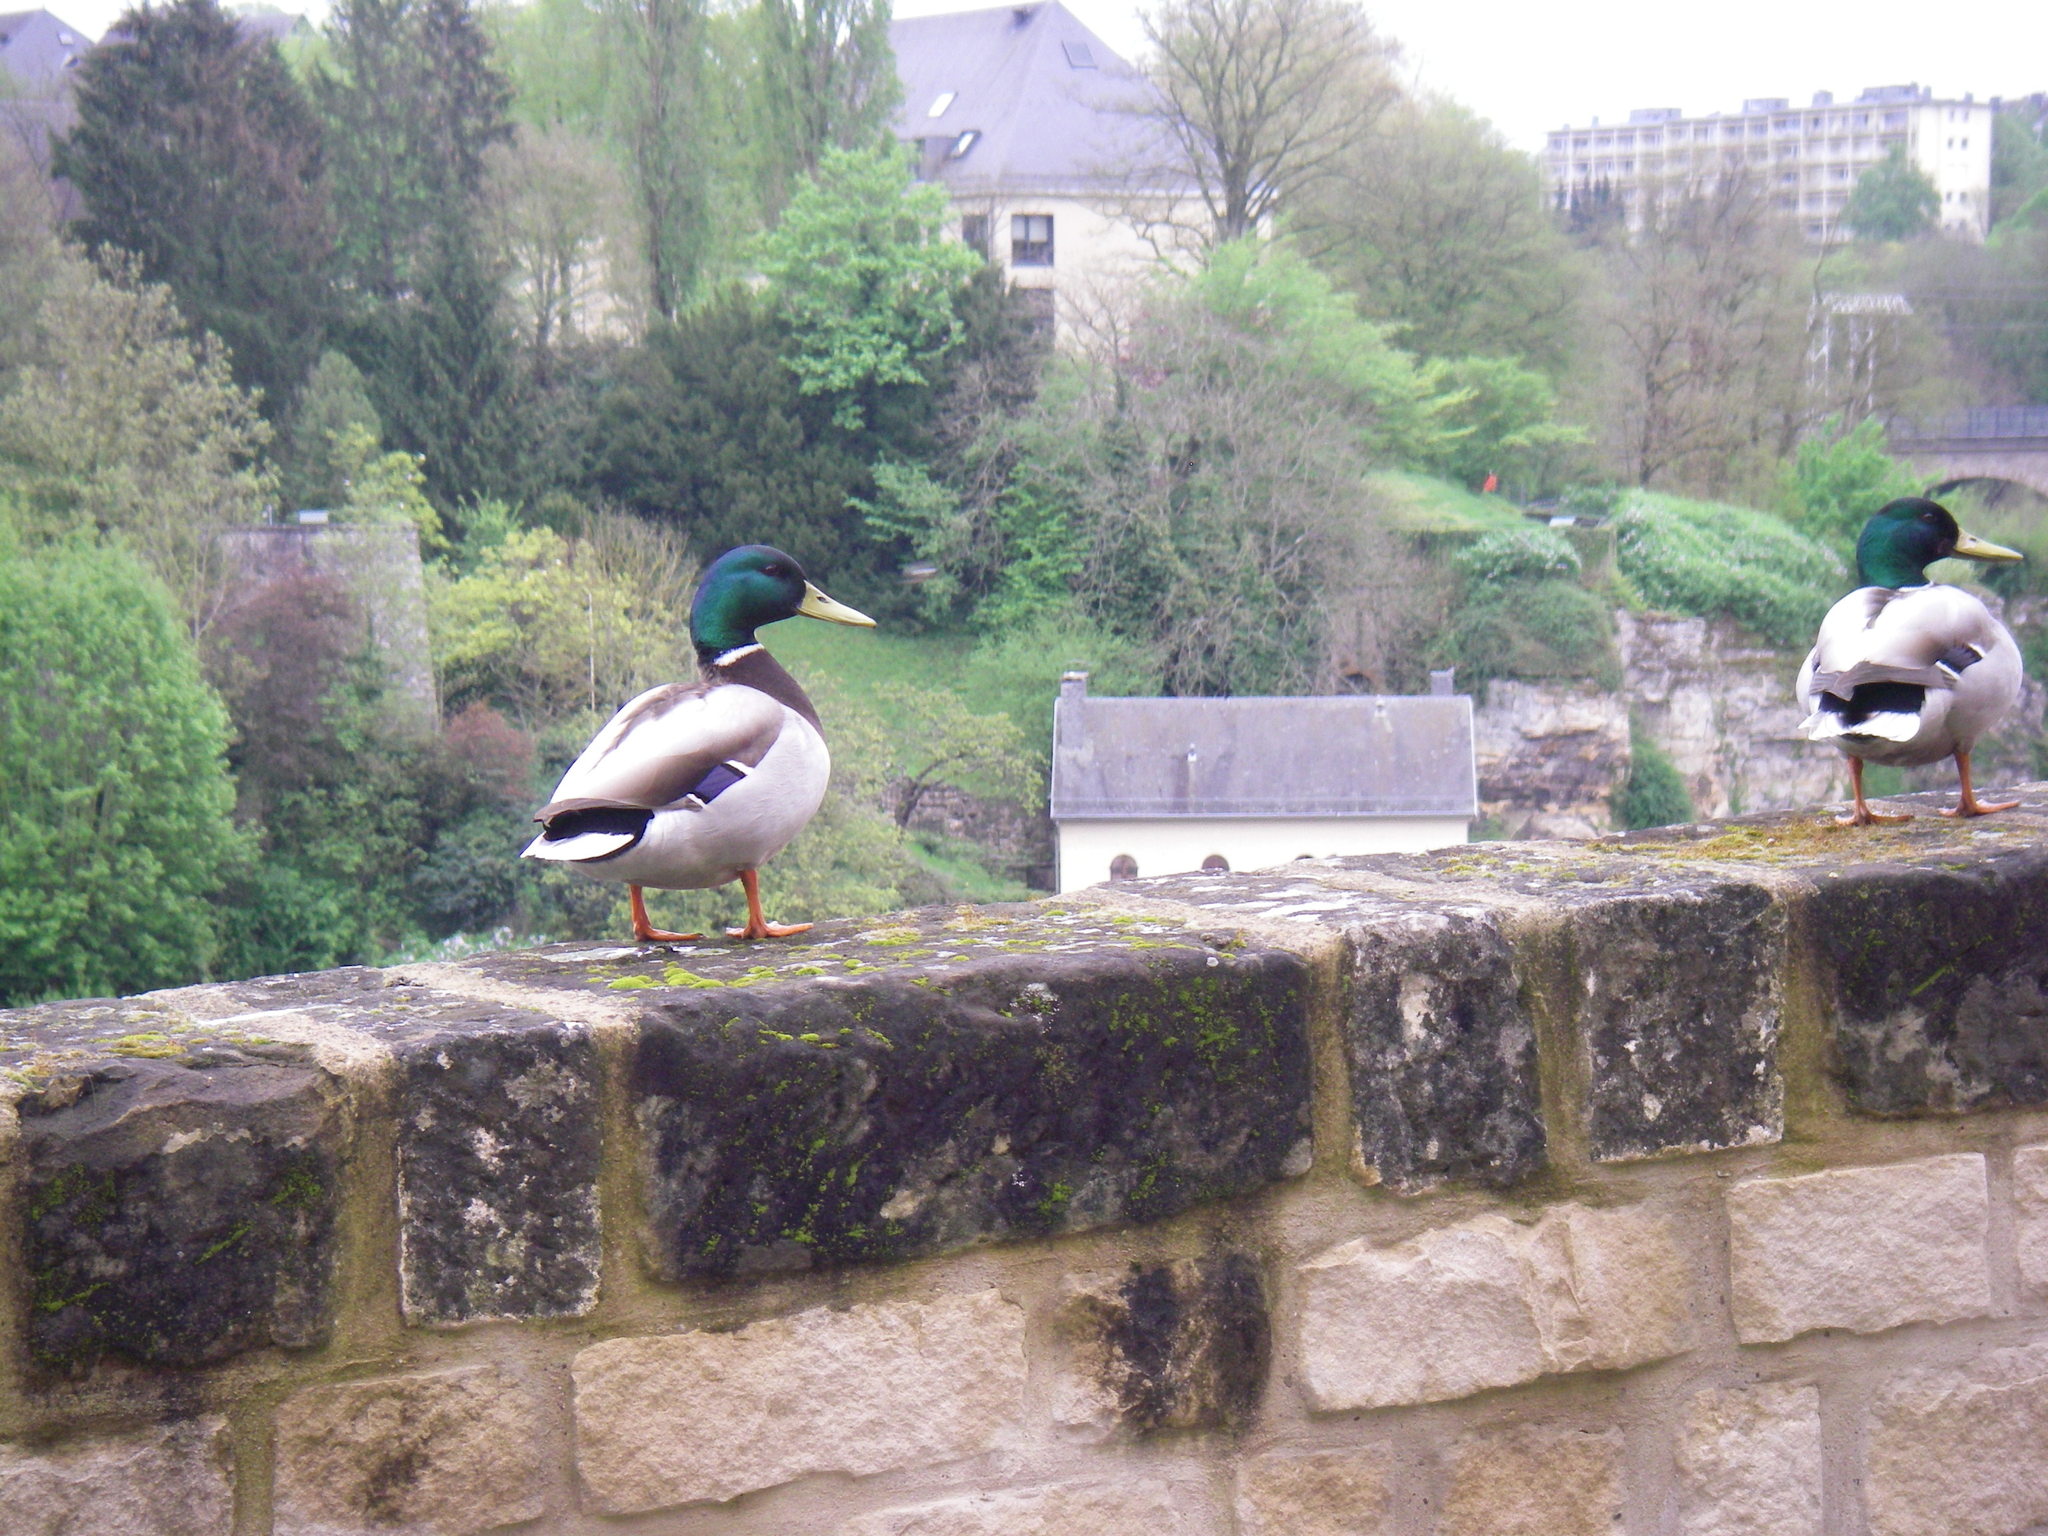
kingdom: Animalia
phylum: Chordata
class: Aves
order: Anseriformes
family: Anatidae
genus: Anas
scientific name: Anas platyrhynchos
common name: Mallard
